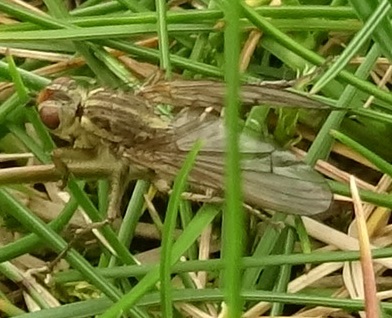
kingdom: Animalia
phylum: Arthropoda
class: Insecta
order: Diptera
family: Scathophagidae
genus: Scathophaga
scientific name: Scathophaga stercoraria
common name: Yellow dung fly
